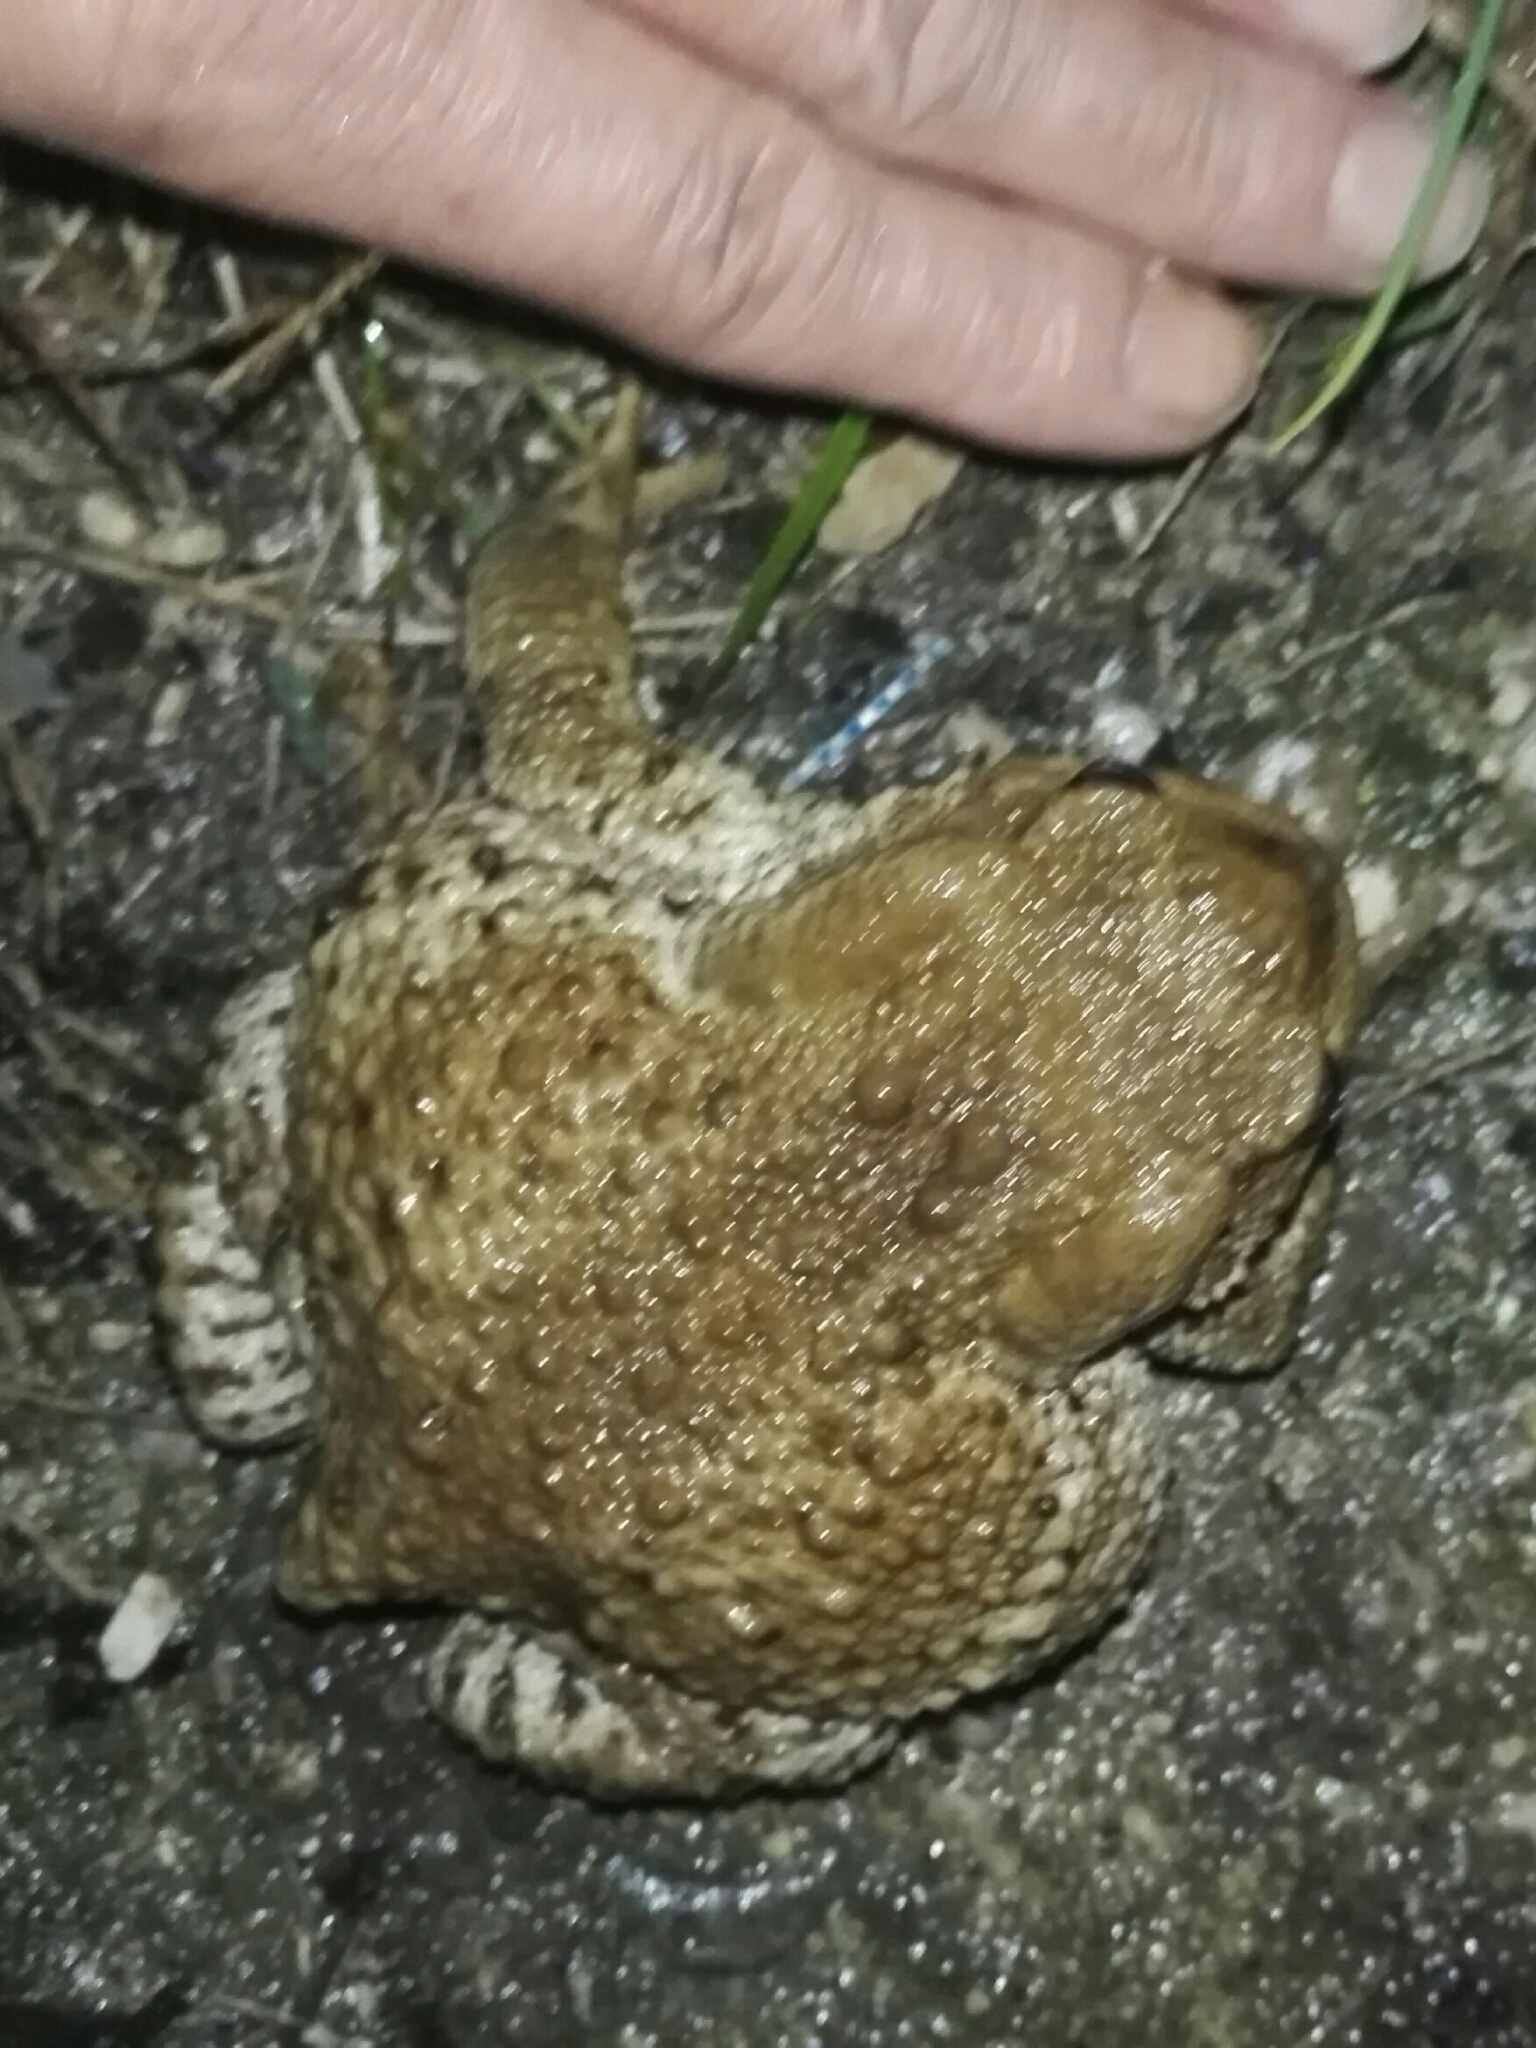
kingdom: Animalia
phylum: Chordata
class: Amphibia
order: Anura
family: Bufonidae
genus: Bufo
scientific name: Bufo bufo
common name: Common toad
